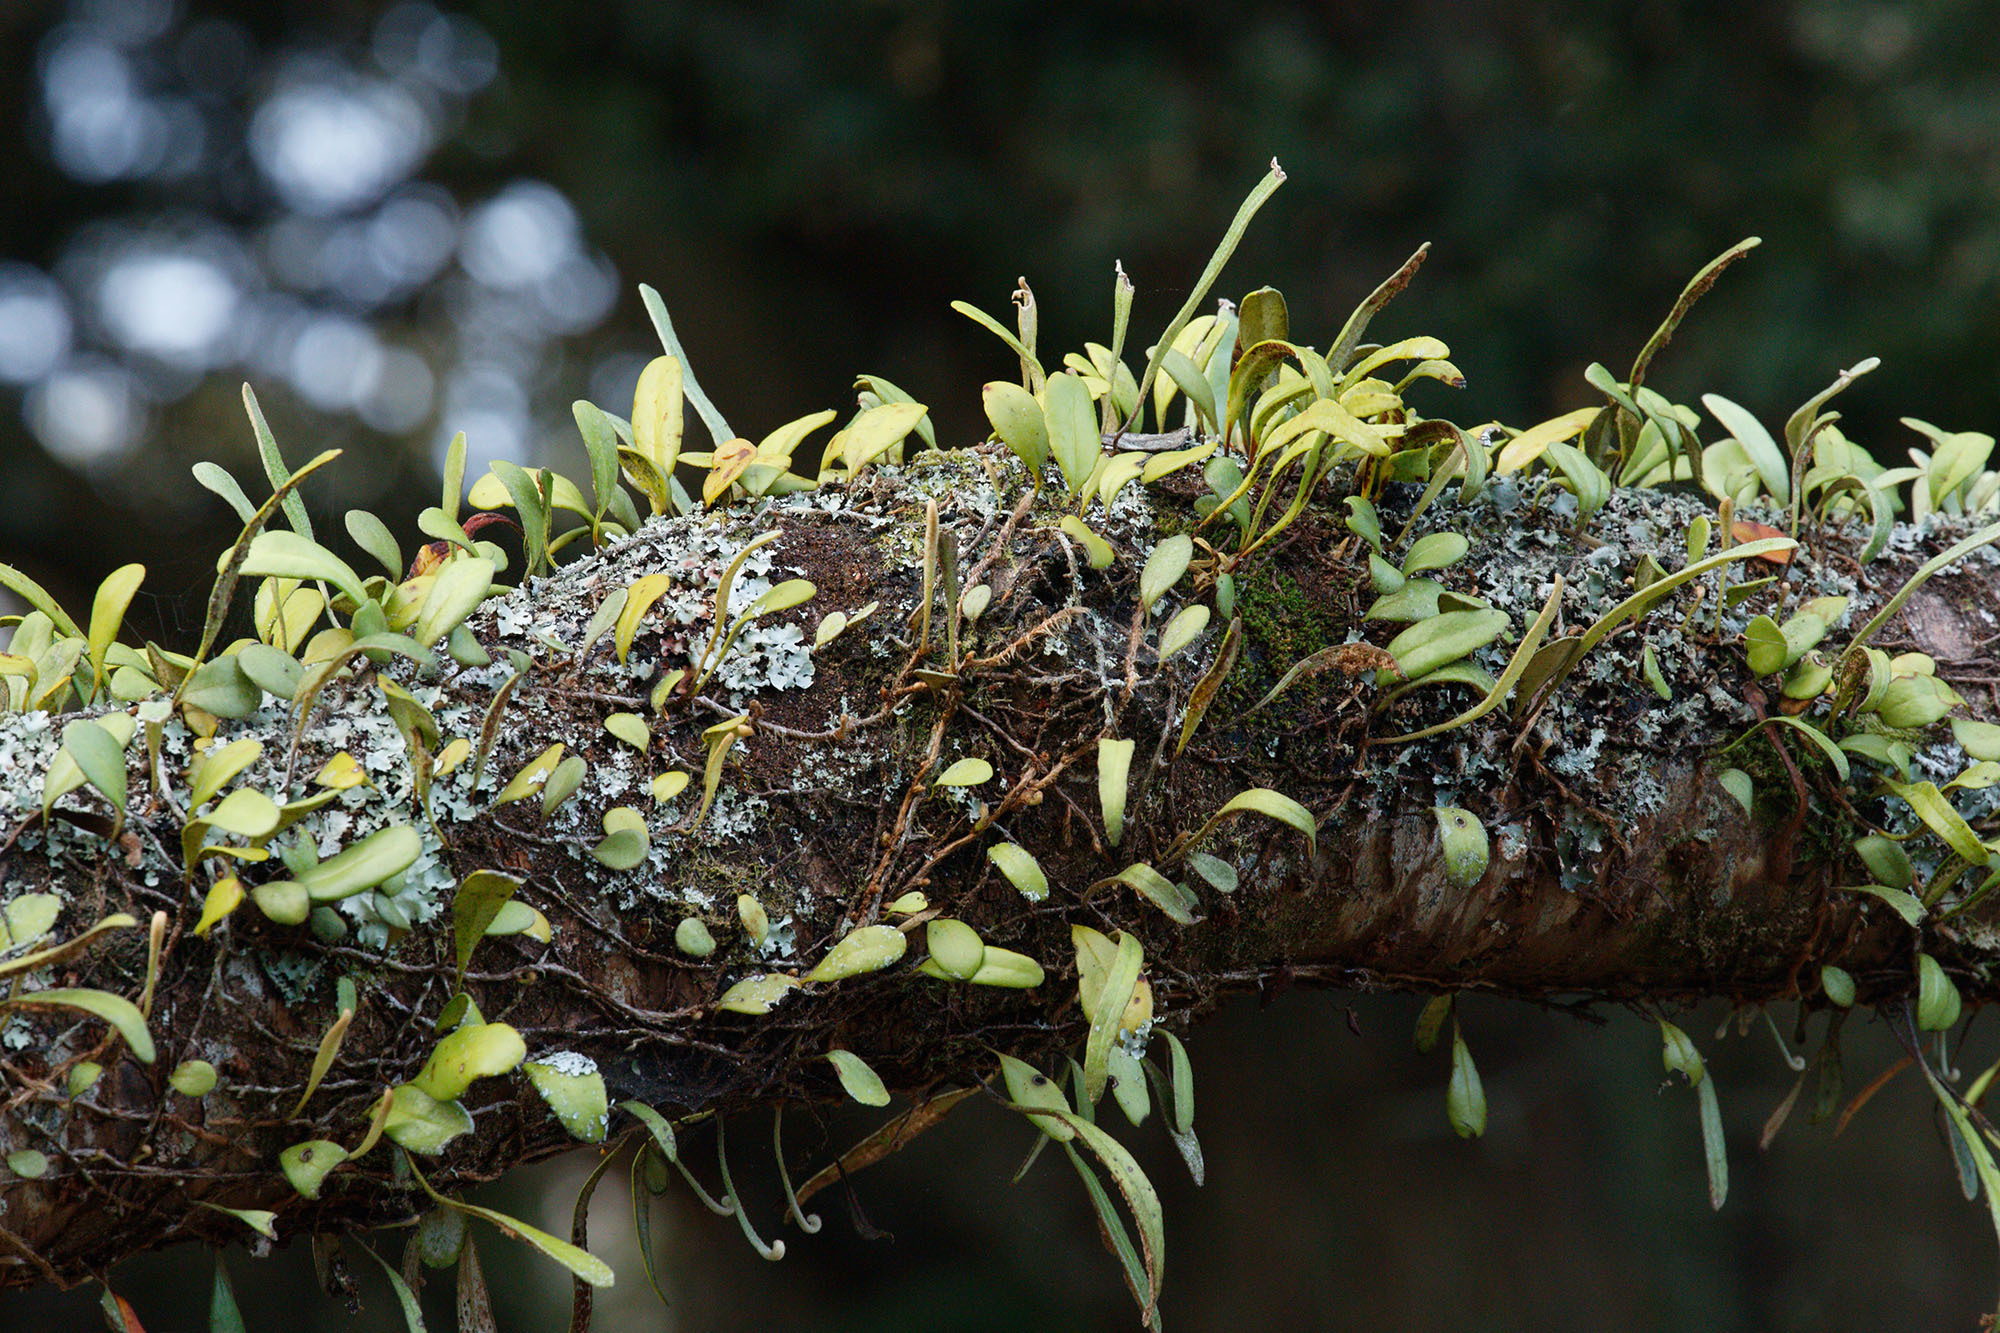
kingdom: Plantae
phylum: Tracheophyta
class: Polypodiopsida
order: Polypodiales
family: Polypodiaceae
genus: Pyrrosia
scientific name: Pyrrosia eleagnifolia
